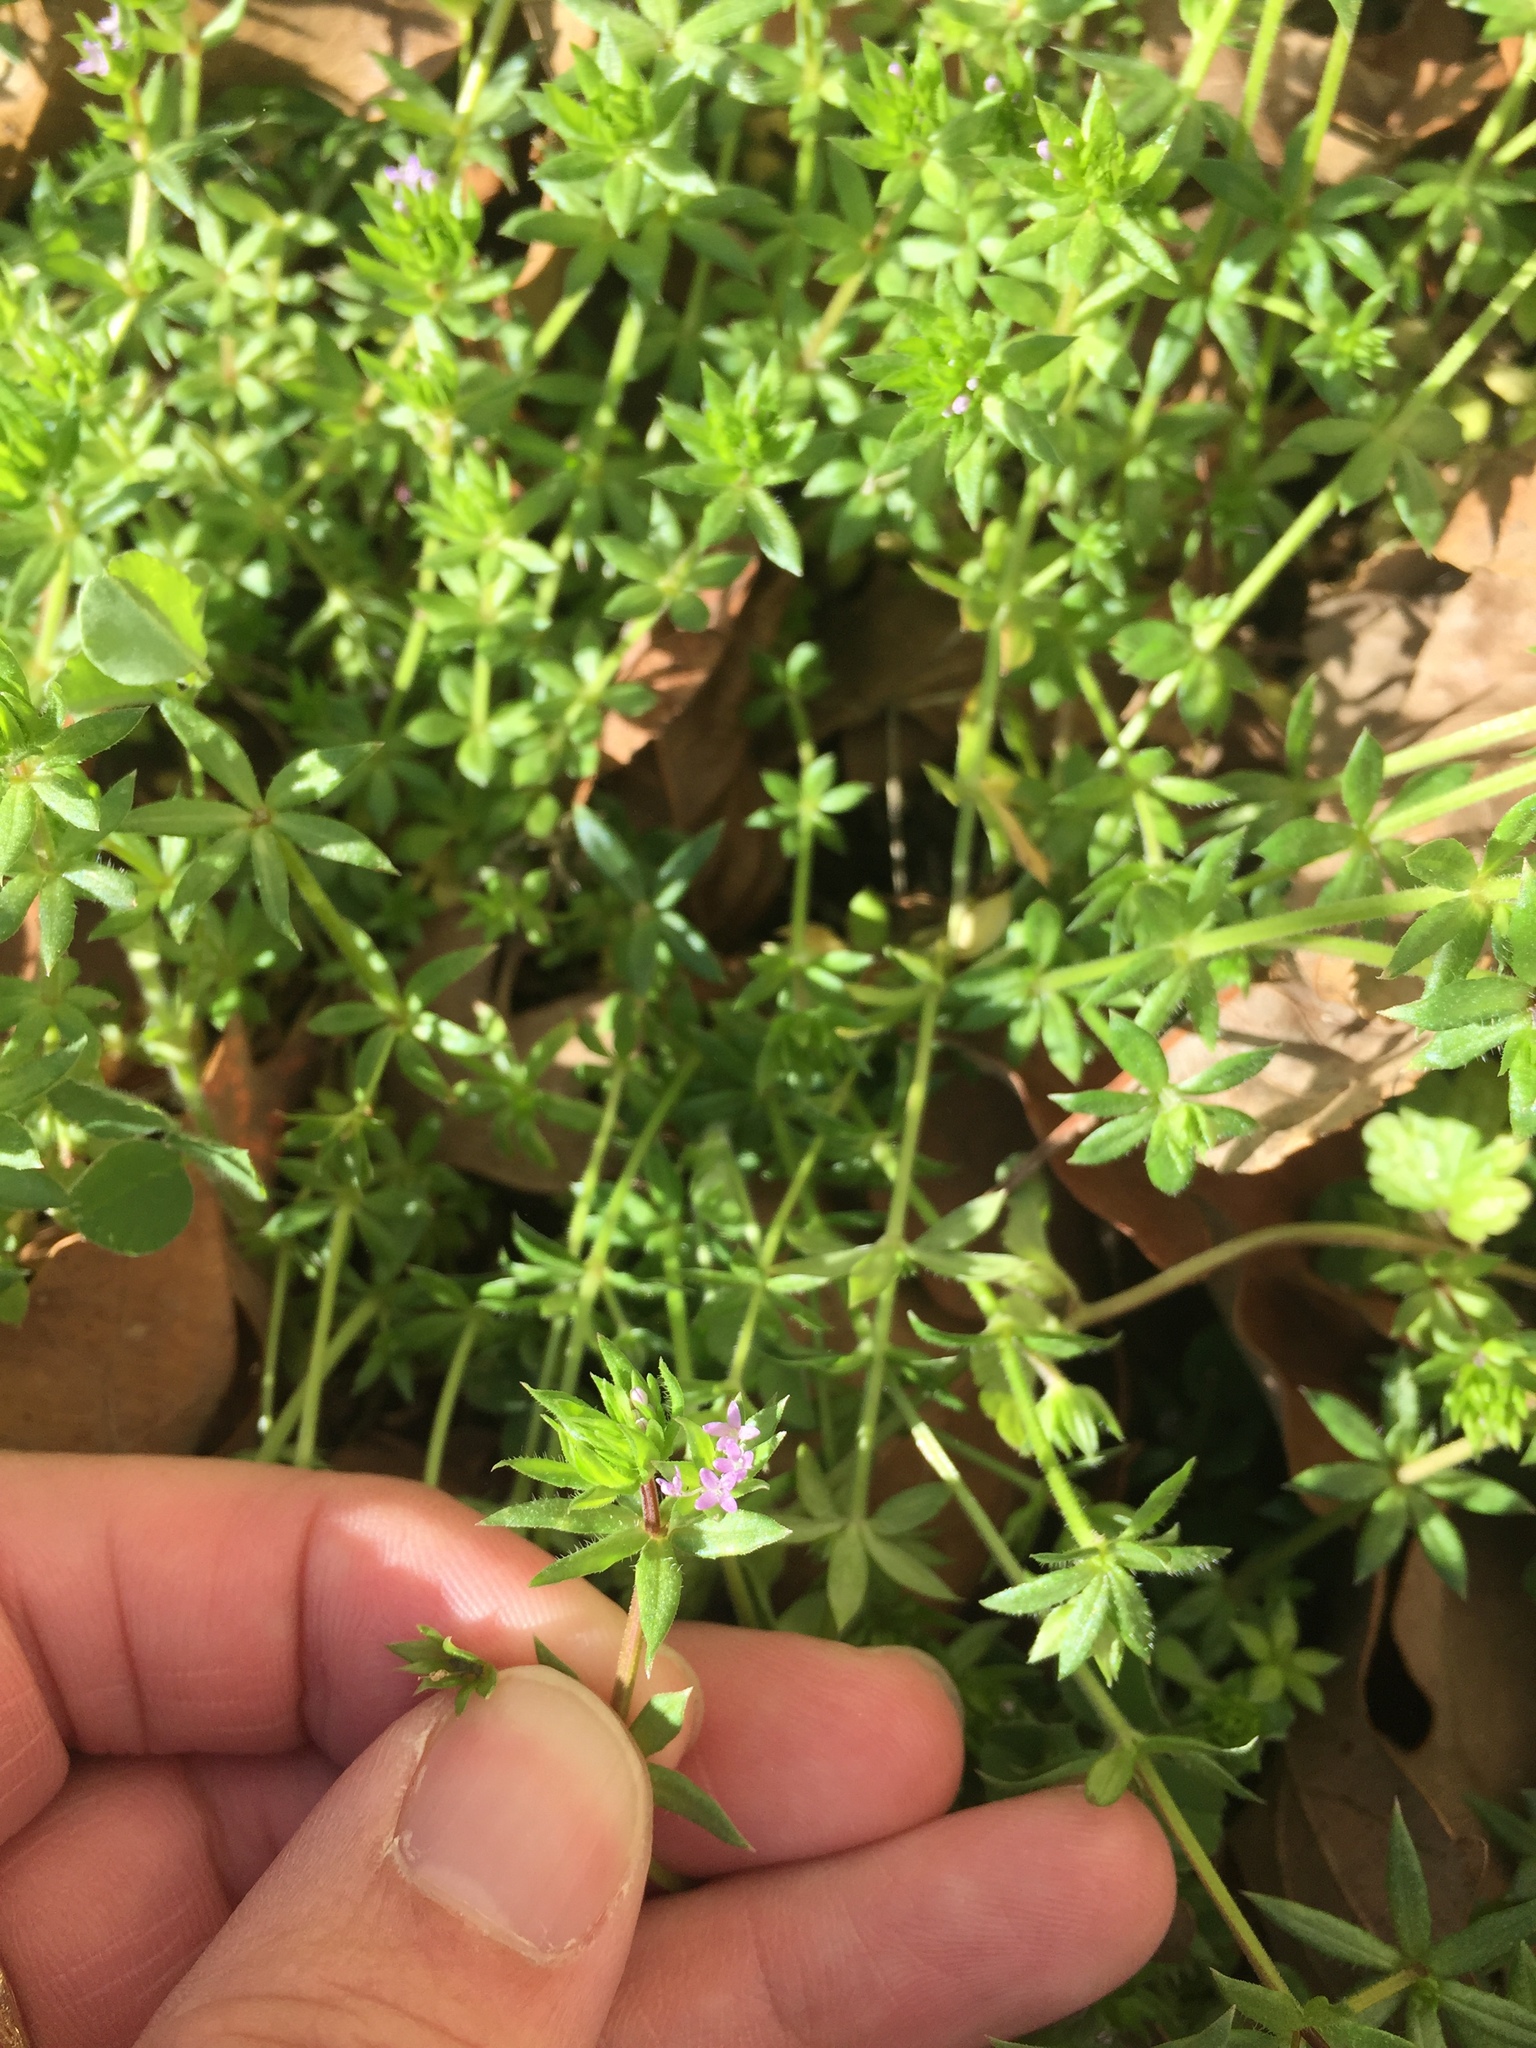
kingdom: Plantae
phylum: Tracheophyta
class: Magnoliopsida
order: Gentianales
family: Rubiaceae
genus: Sherardia
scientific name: Sherardia arvensis
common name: Field madder
